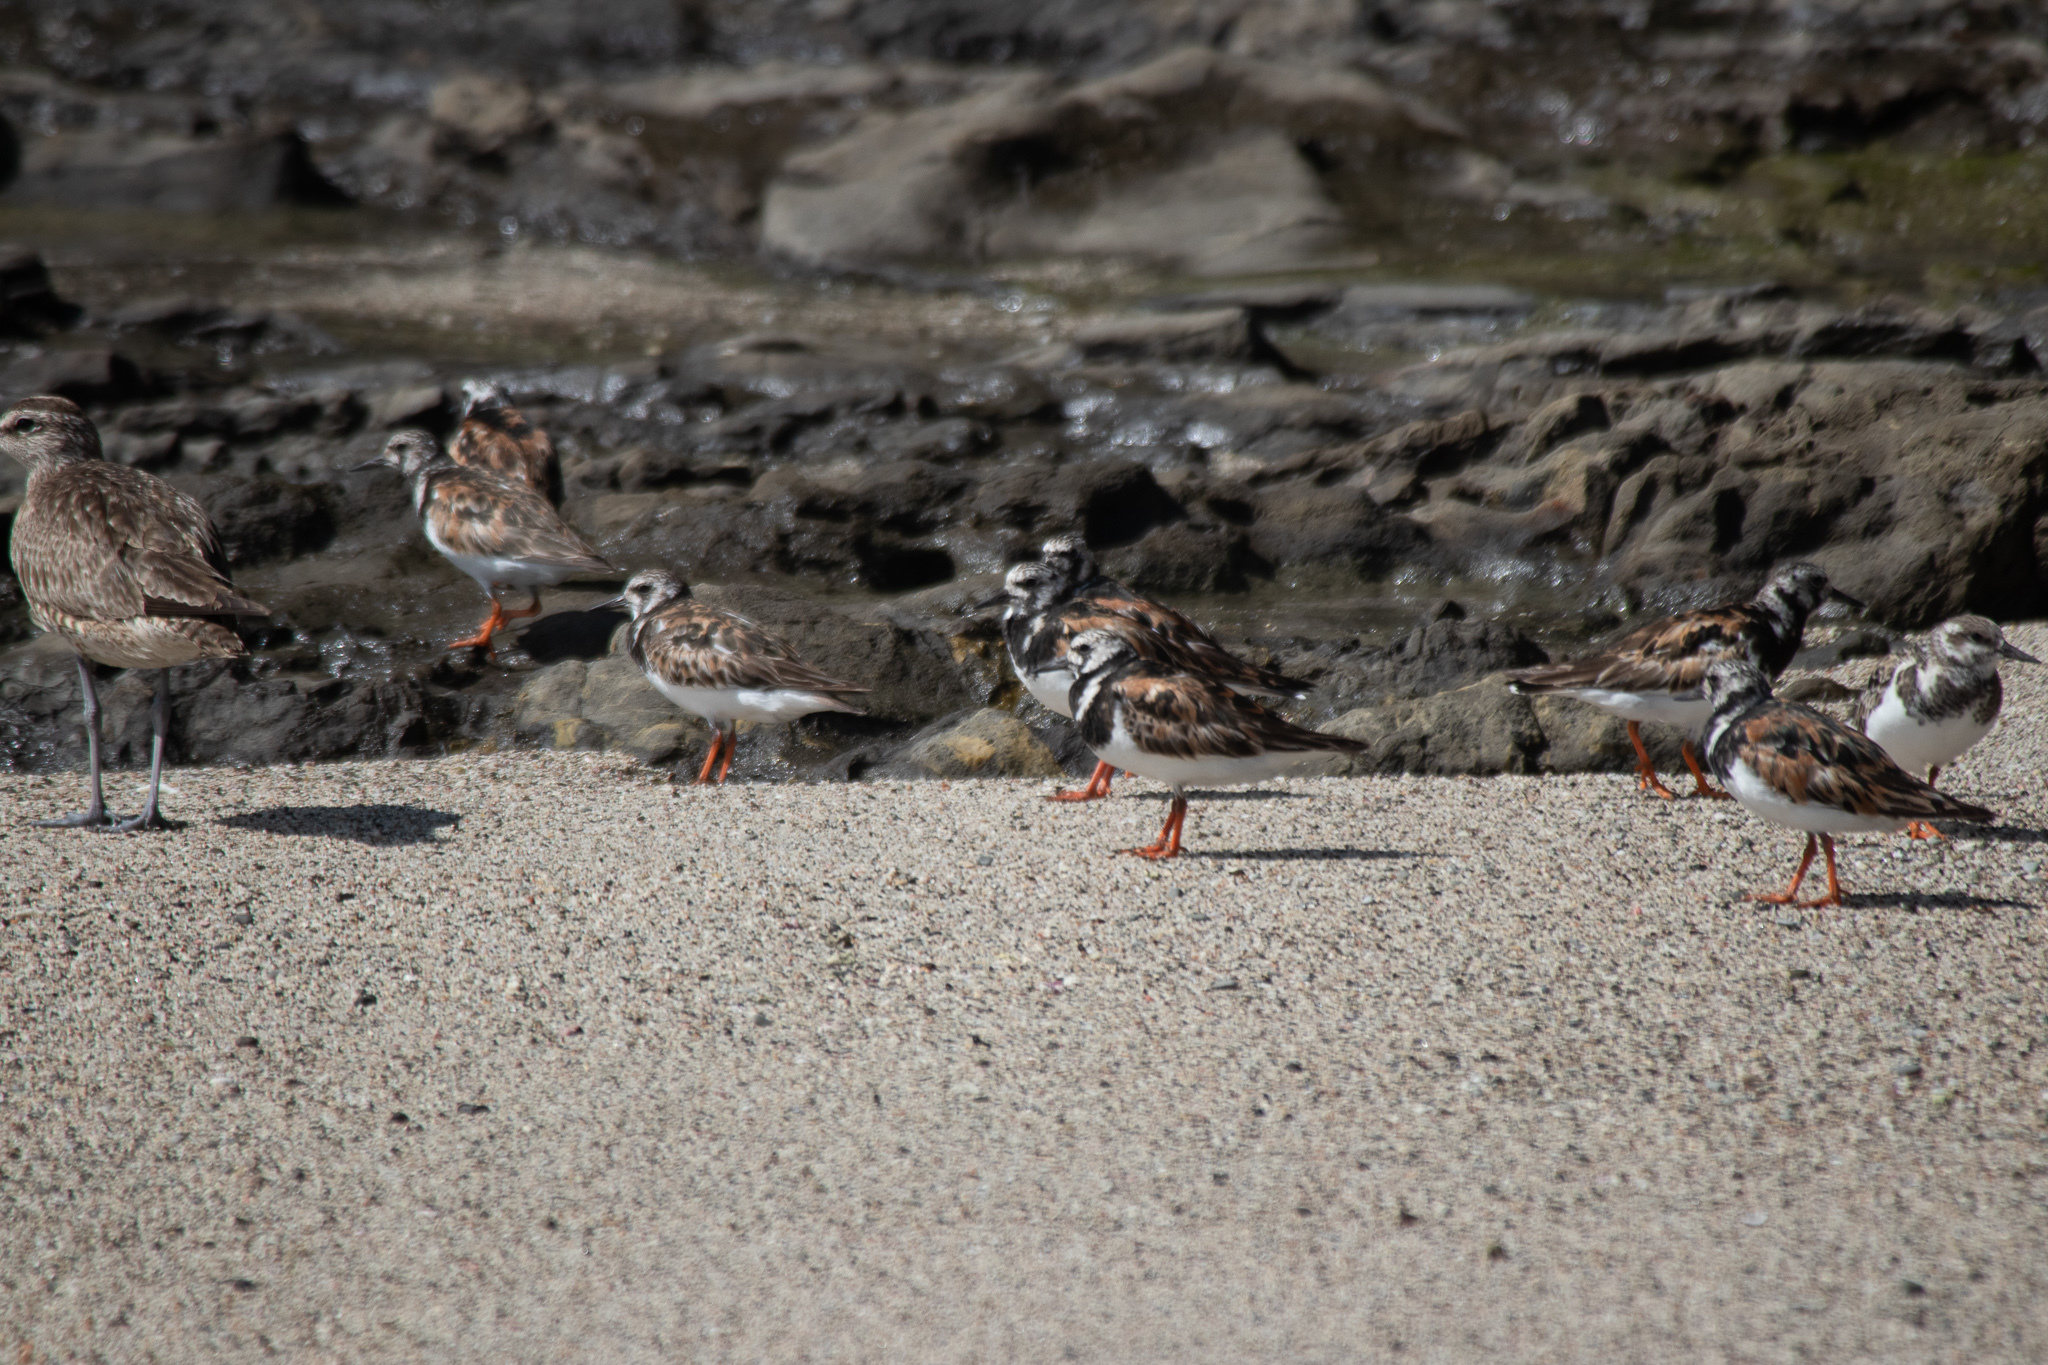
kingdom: Animalia
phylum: Chordata
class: Aves
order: Charadriiformes
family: Scolopacidae
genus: Arenaria
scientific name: Arenaria interpres
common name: Ruddy turnstone
